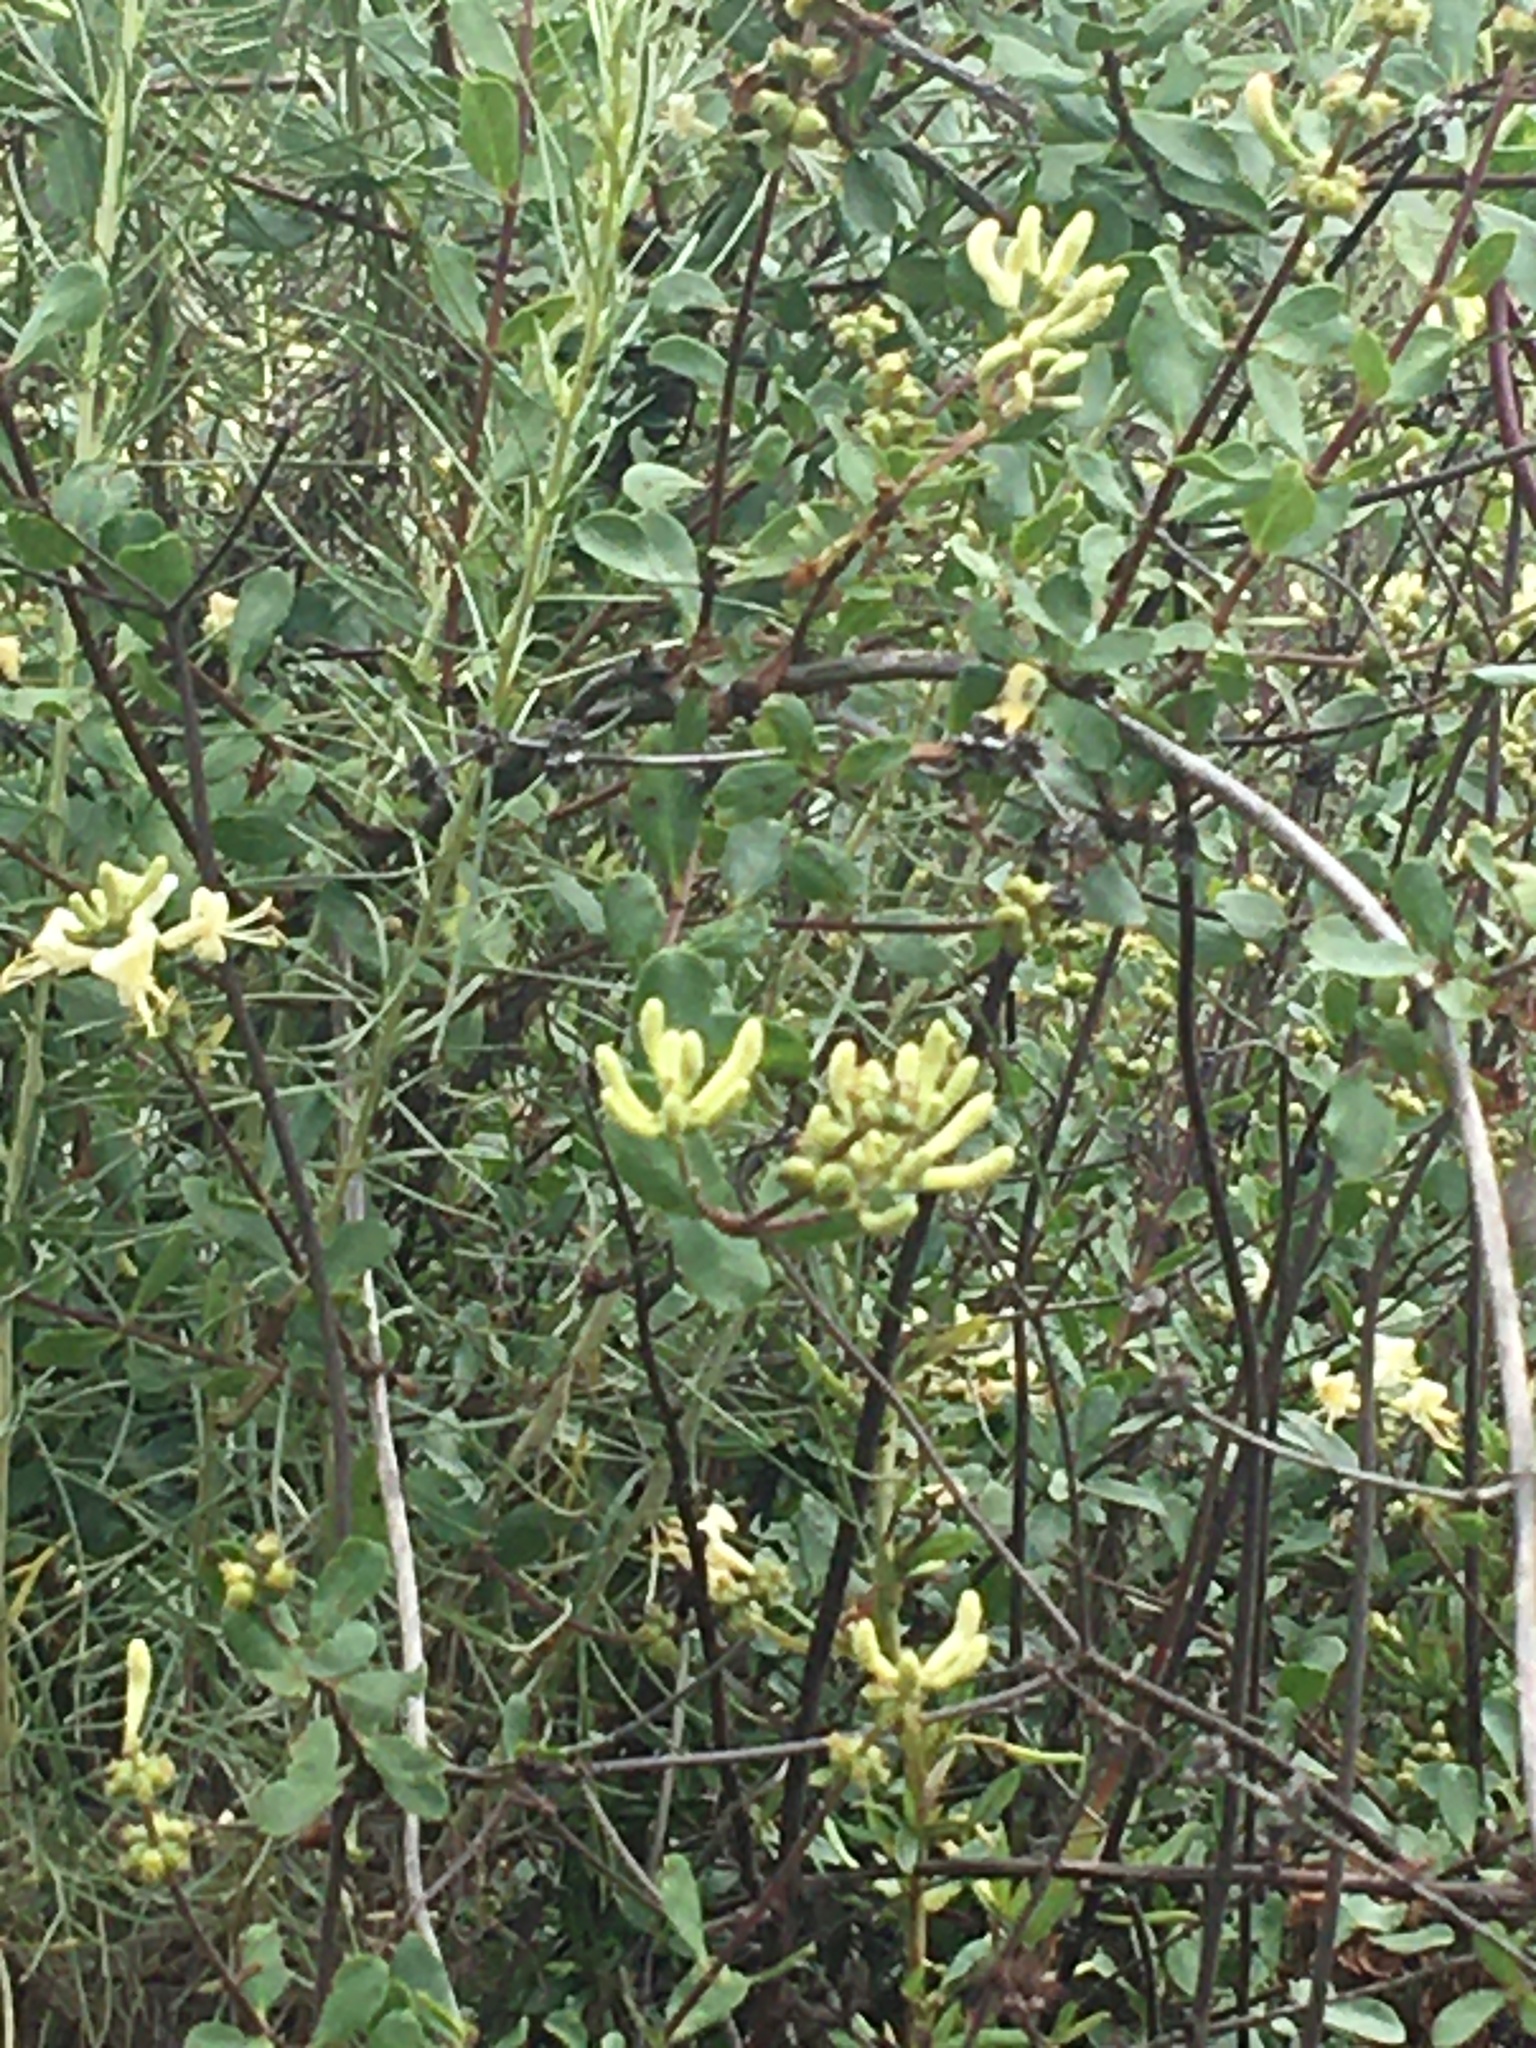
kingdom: Plantae
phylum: Tracheophyta
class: Magnoliopsida
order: Dipsacales
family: Caprifoliaceae
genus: Lonicera
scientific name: Lonicera subspicata
